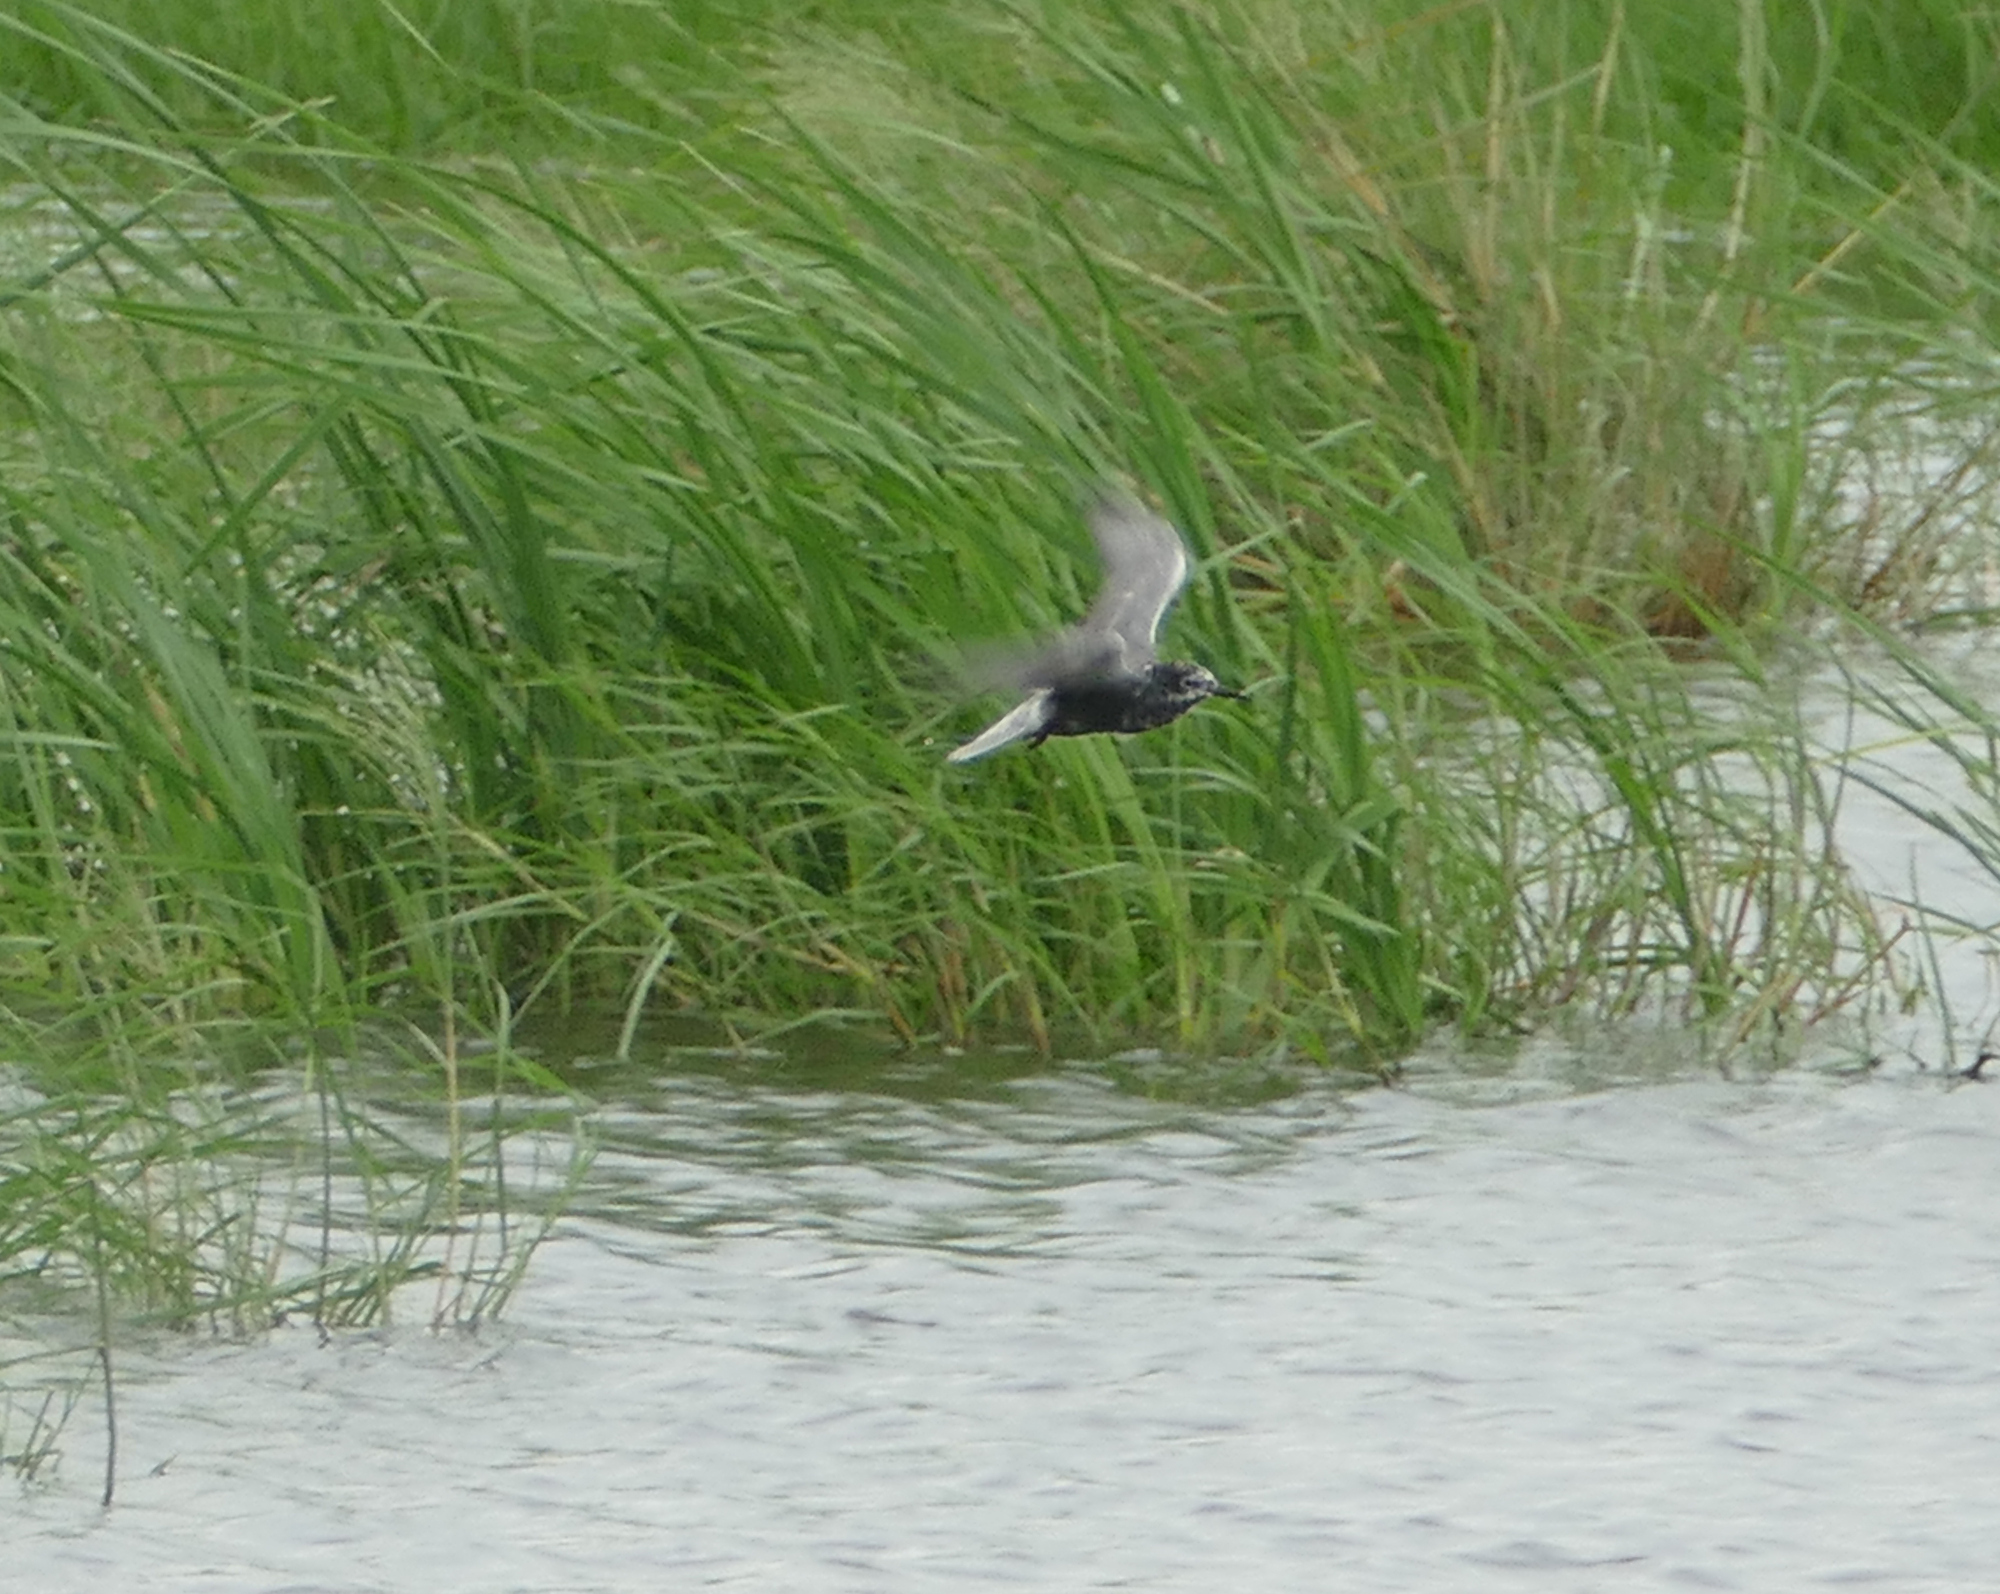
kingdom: Animalia
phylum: Chordata
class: Aves
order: Charadriiformes
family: Laridae
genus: Chlidonias
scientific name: Chlidonias niger
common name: Black tern
